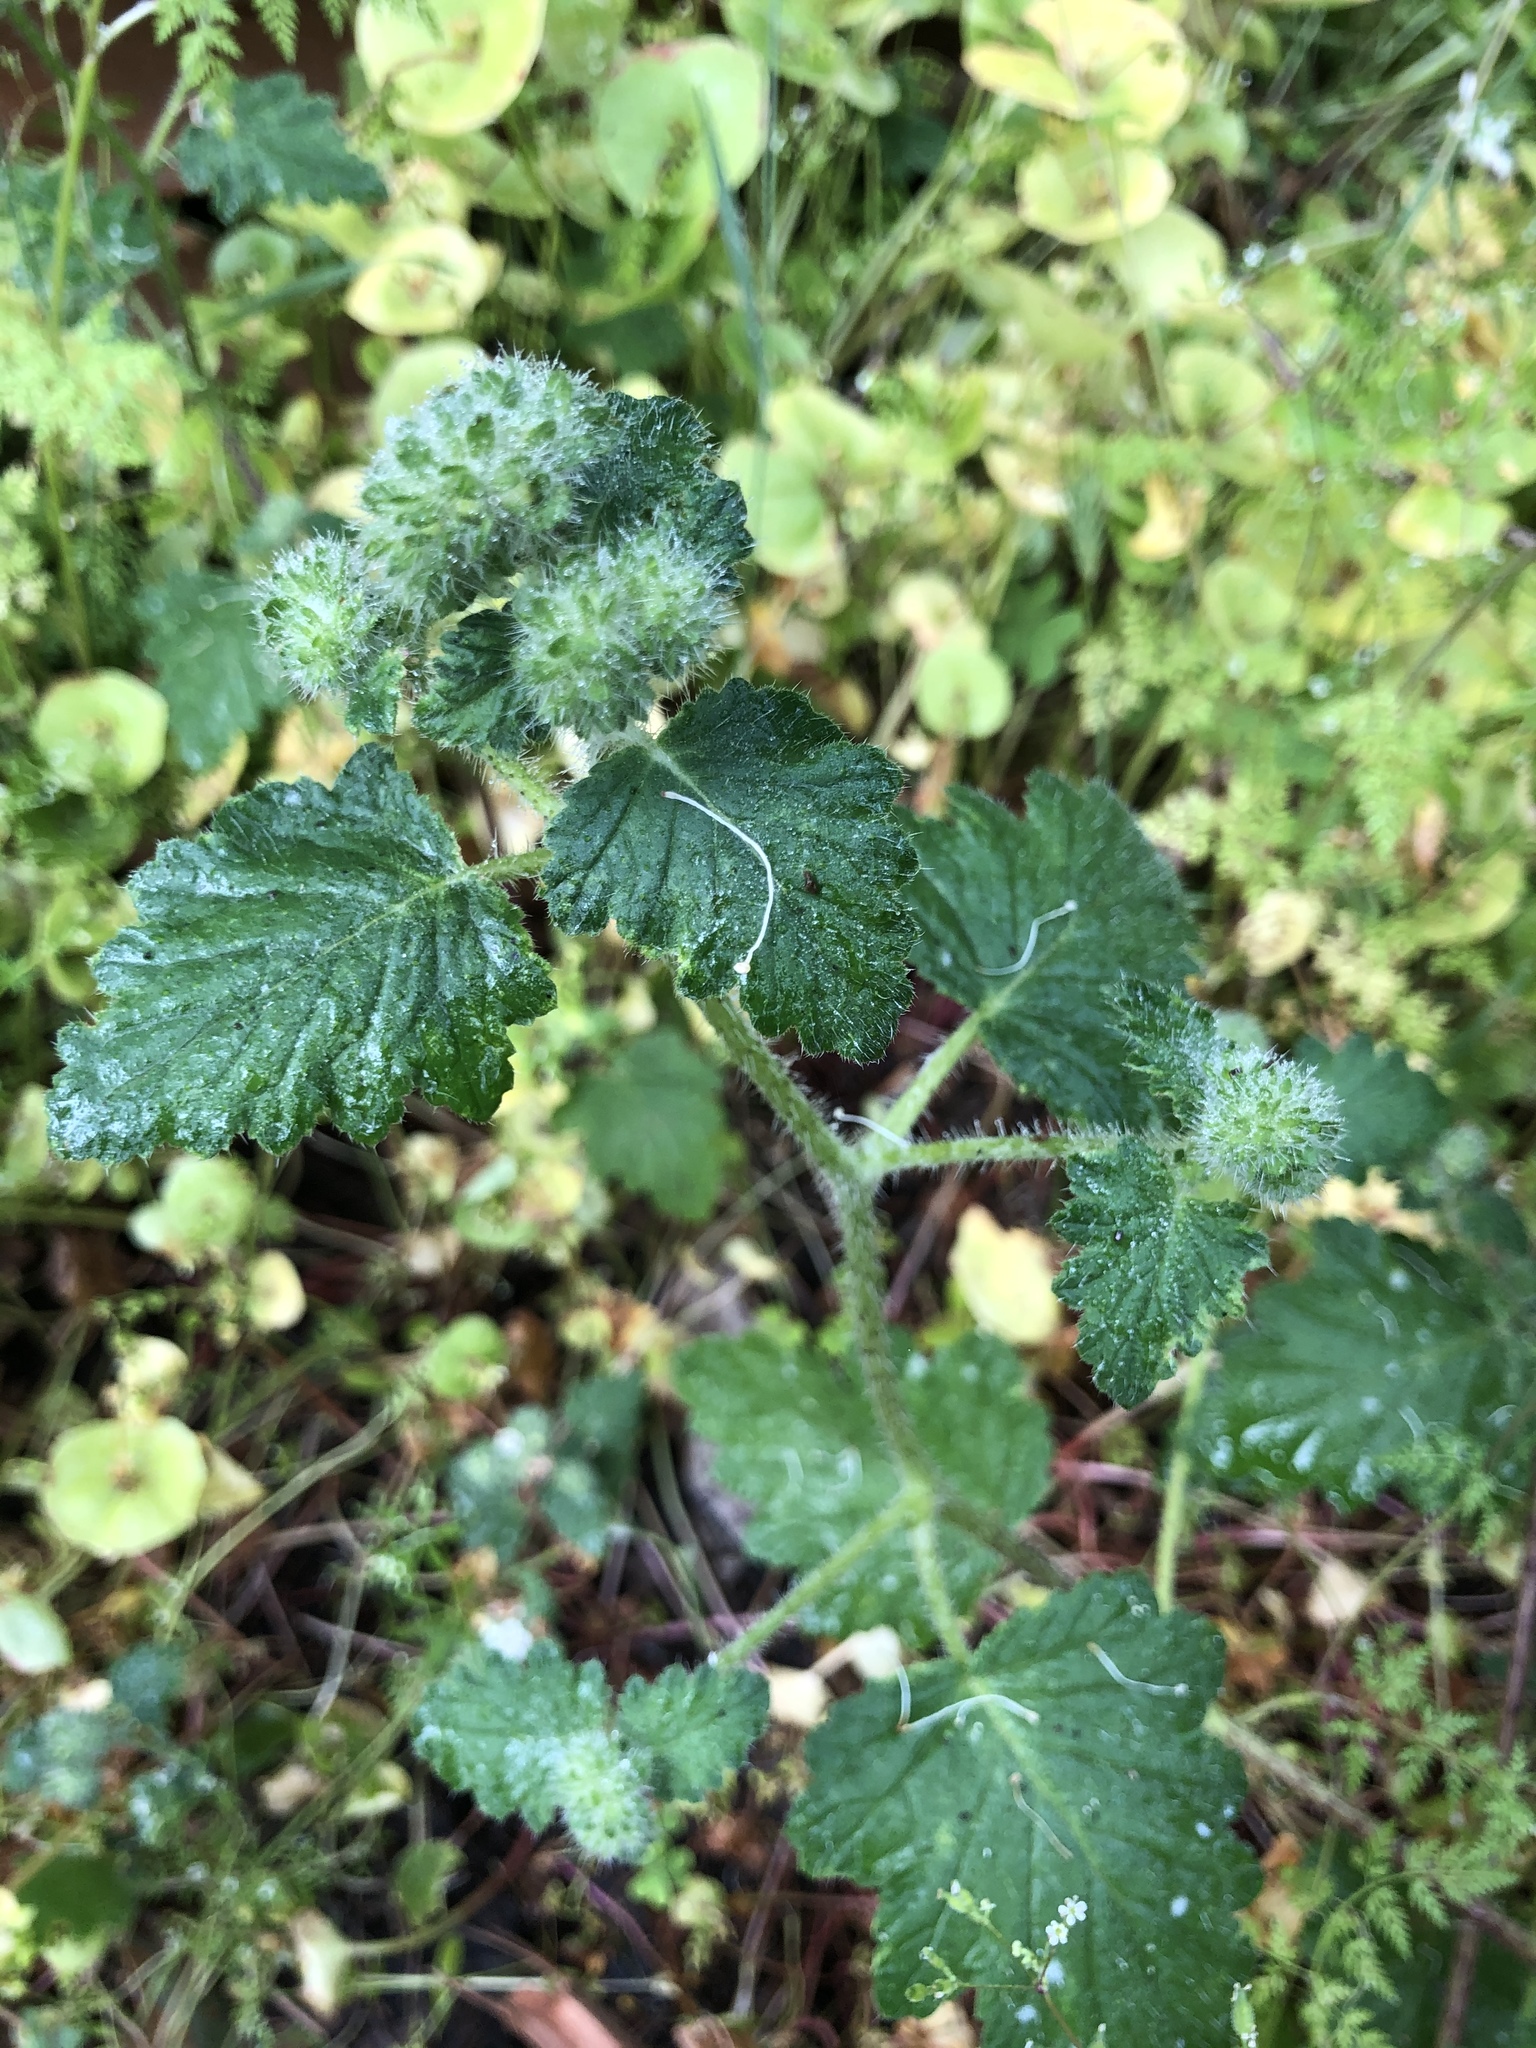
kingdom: Plantae
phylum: Tracheophyta
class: Magnoliopsida
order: Boraginales
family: Hydrophyllaceae
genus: Phacelia
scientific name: Phacelia malvifolia
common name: Mallow-leaf phacelia
